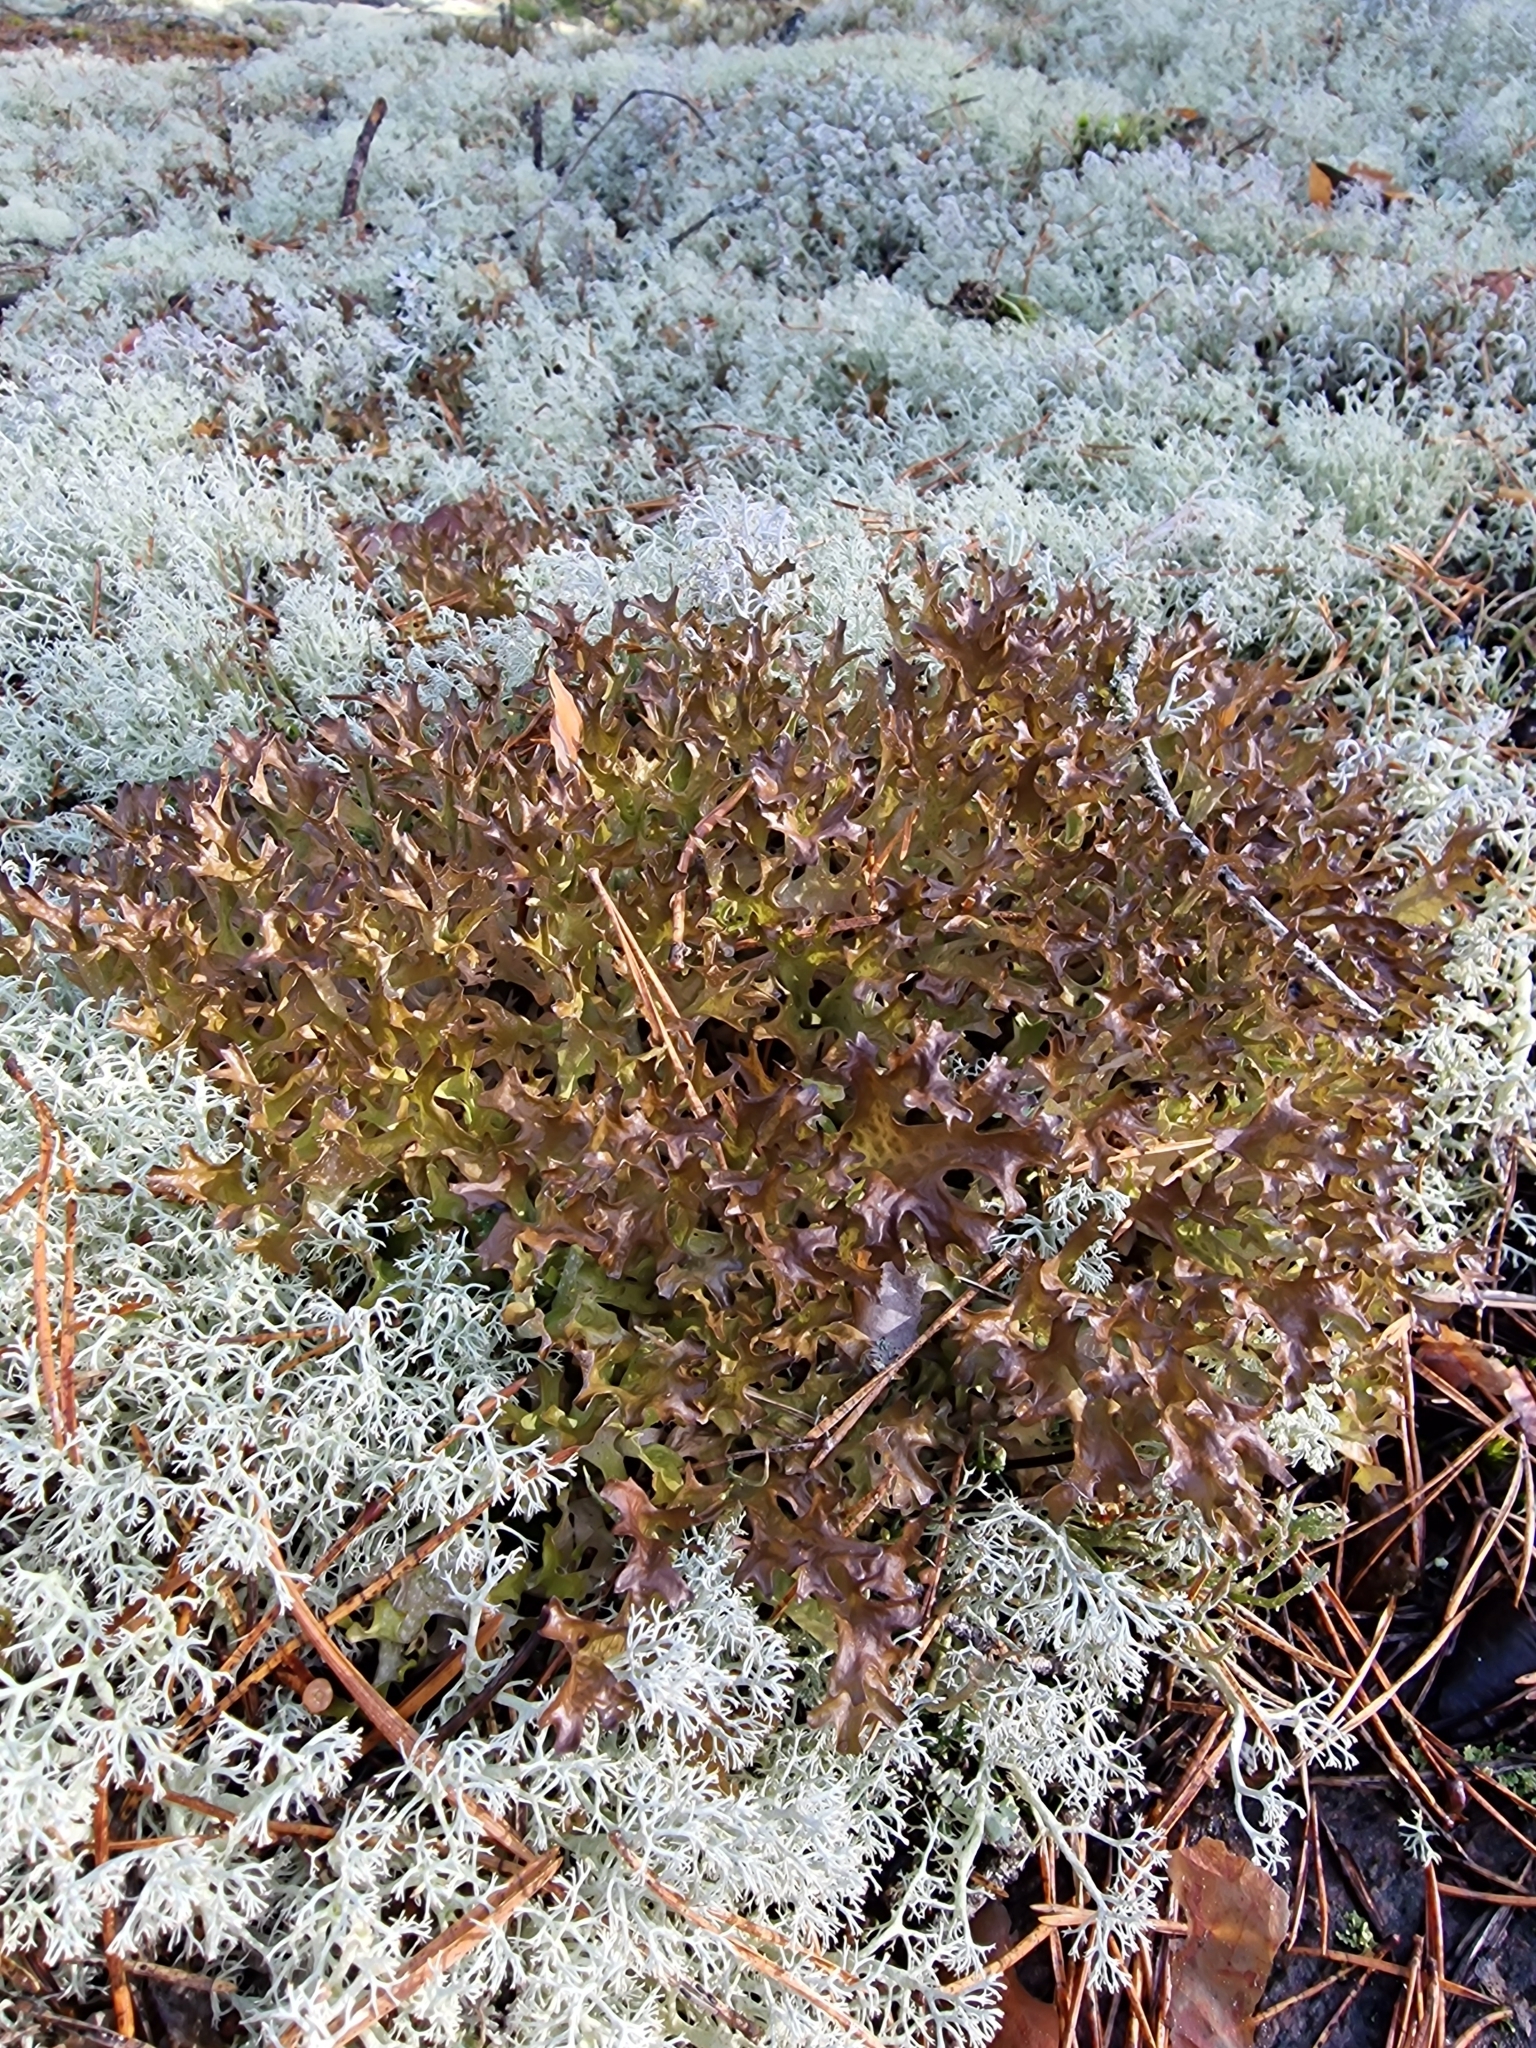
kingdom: Fungi
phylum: Ascomycota
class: Lecanoromycetes
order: Lecanorales
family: Parmeliaceae
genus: Cetraria
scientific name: Cetraria islandica
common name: Iceland lichen
